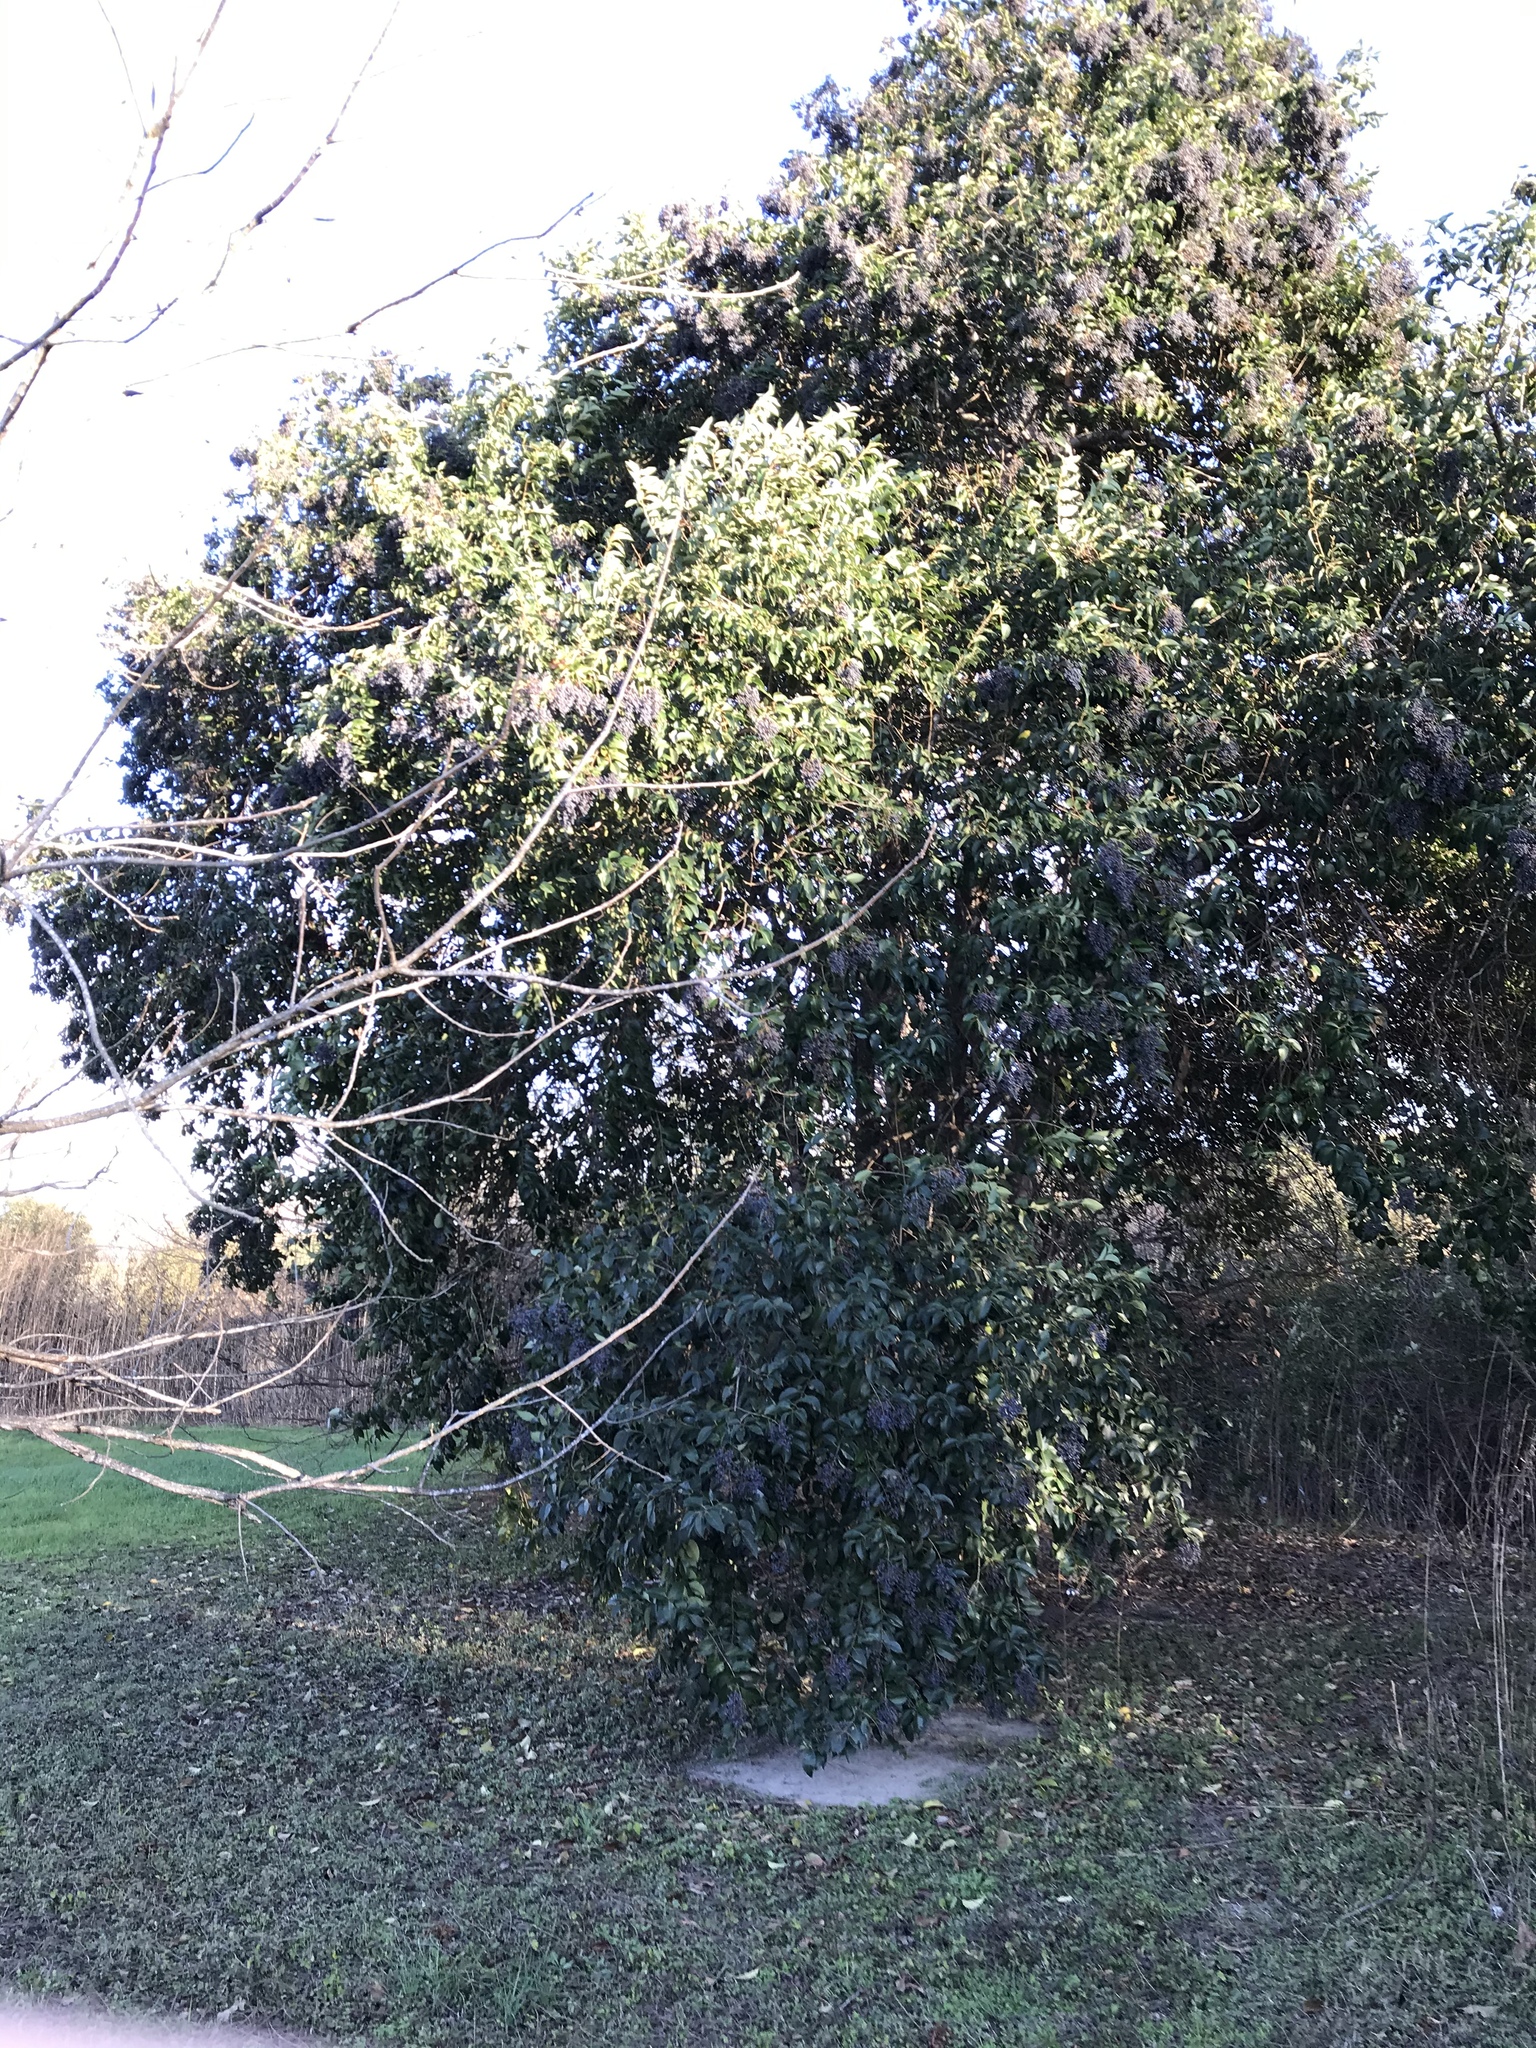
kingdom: Plantae
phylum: Tracheophyta
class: Magnoliopsida
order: Lamiales
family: Oleaceae
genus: Ligustrum
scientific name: Ligustrum lucidum
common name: Glossy privet
